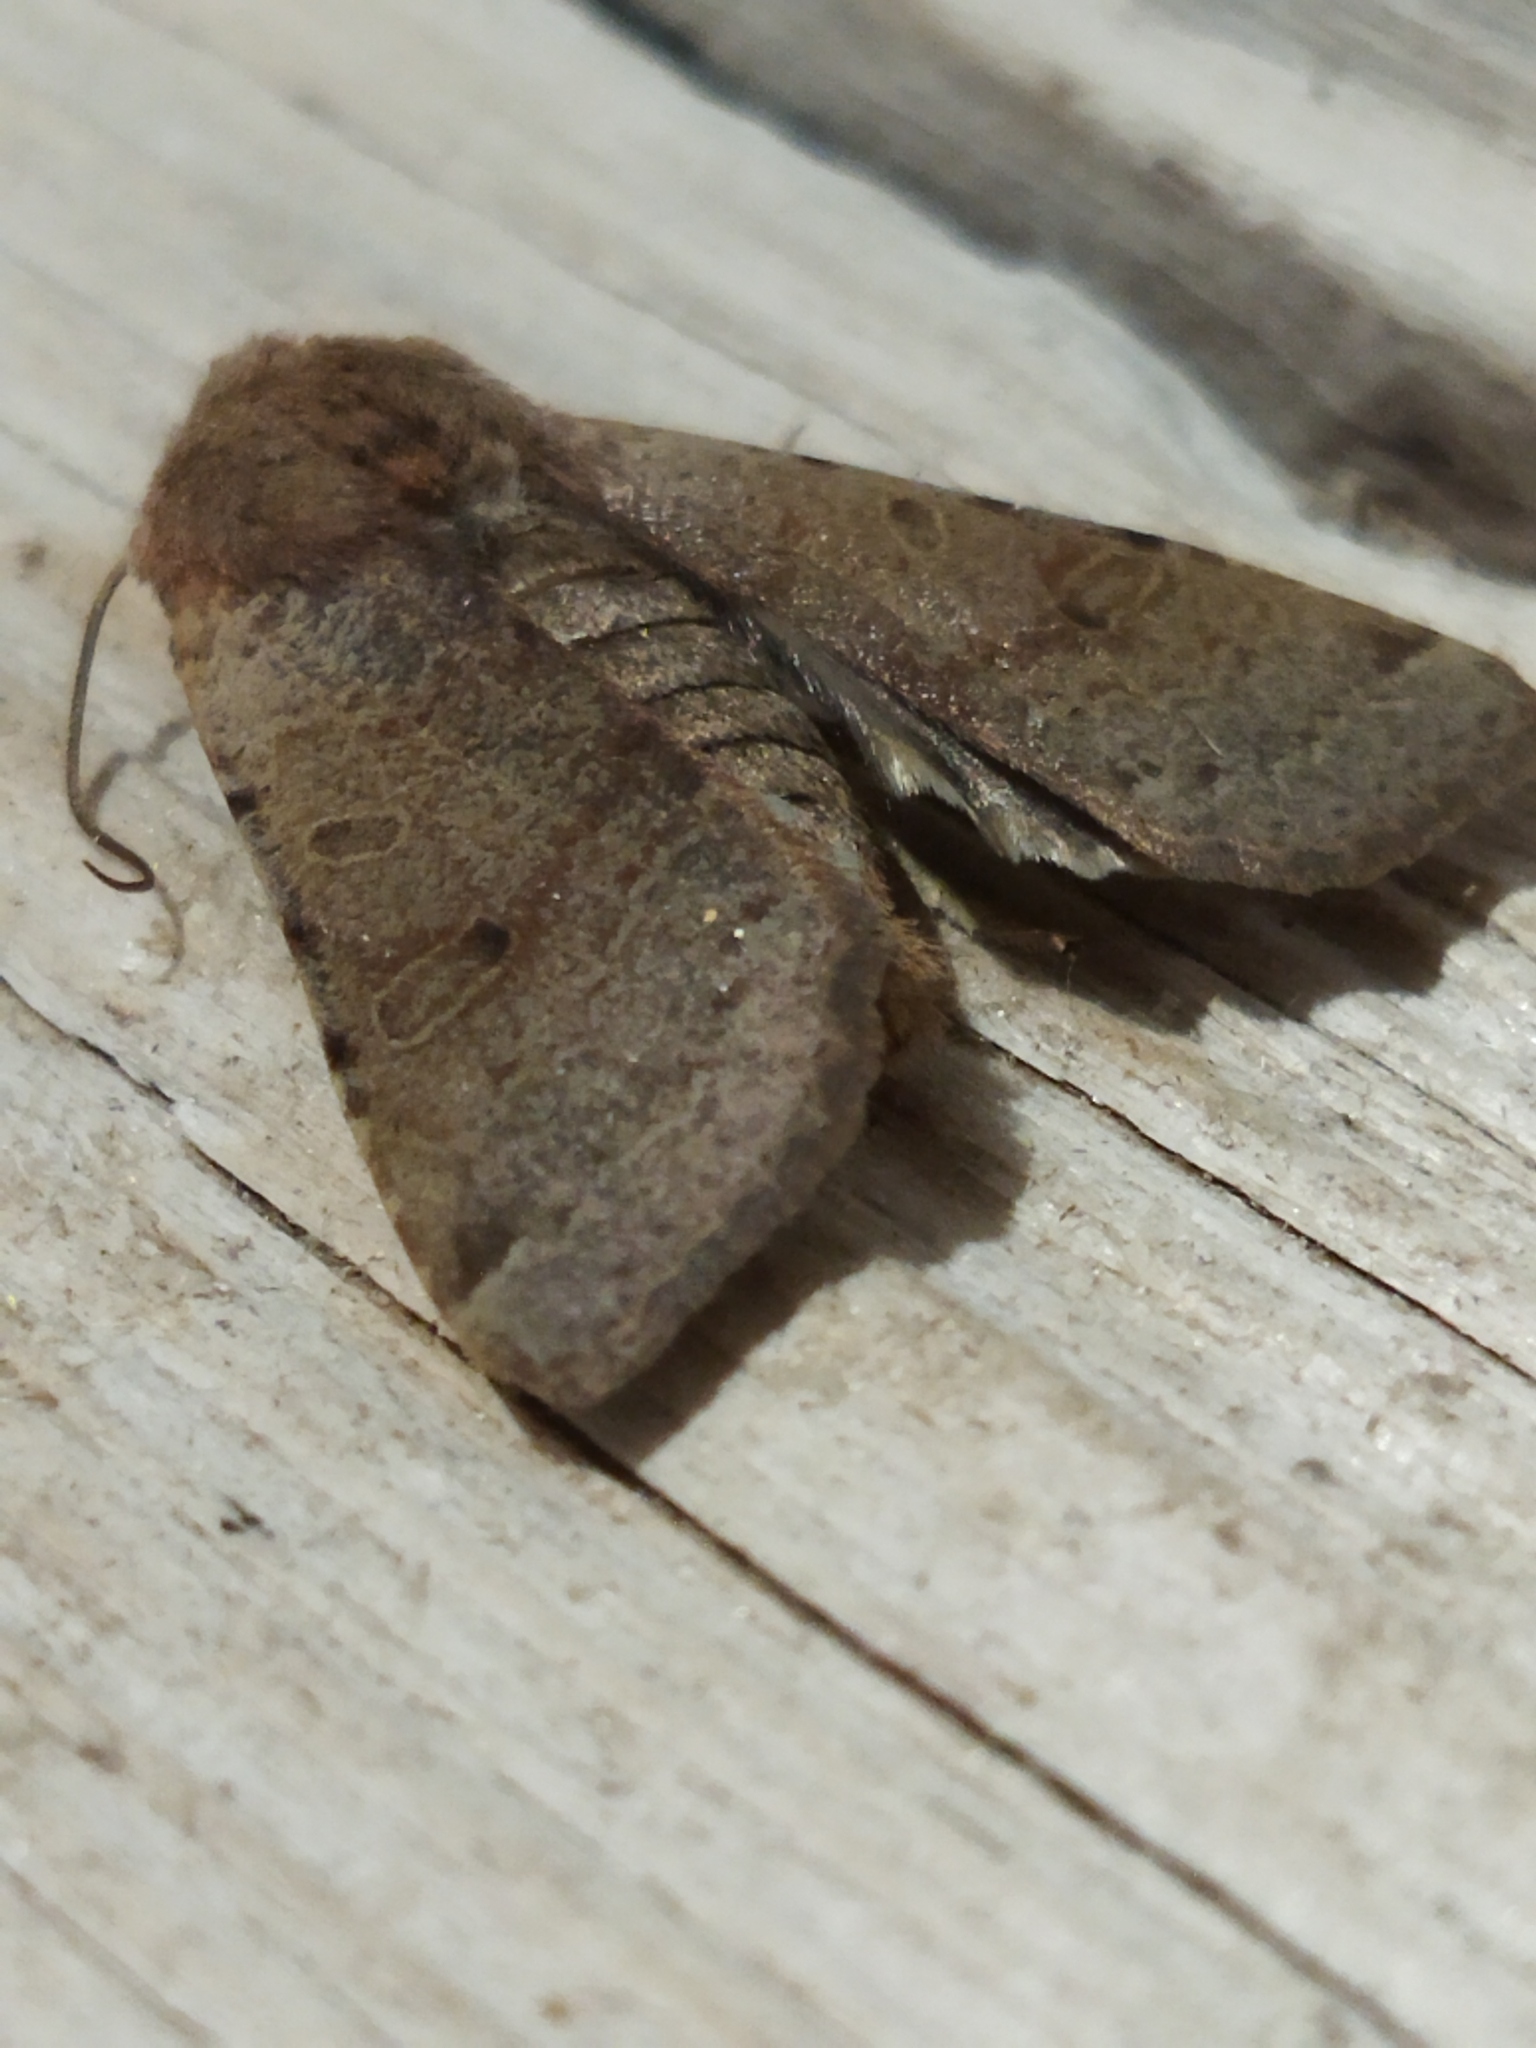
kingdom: Animalia
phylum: Arthropoda
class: Insecta
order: Lepidoptera
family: Noctuidae
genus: Agrochola
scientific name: Agrochola lychnidis
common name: Beaded chestnut
